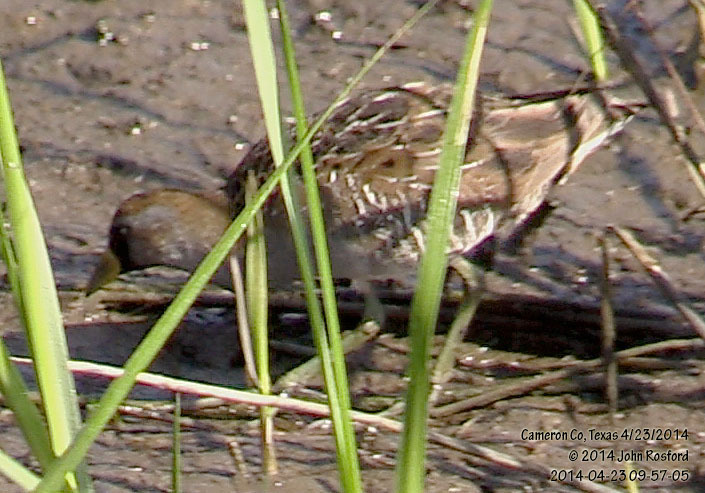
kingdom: Animalia
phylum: Chordata
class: Aves
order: Gruiformes
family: Rallidae
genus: Porzana
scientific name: Porzana carolina
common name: Sora
